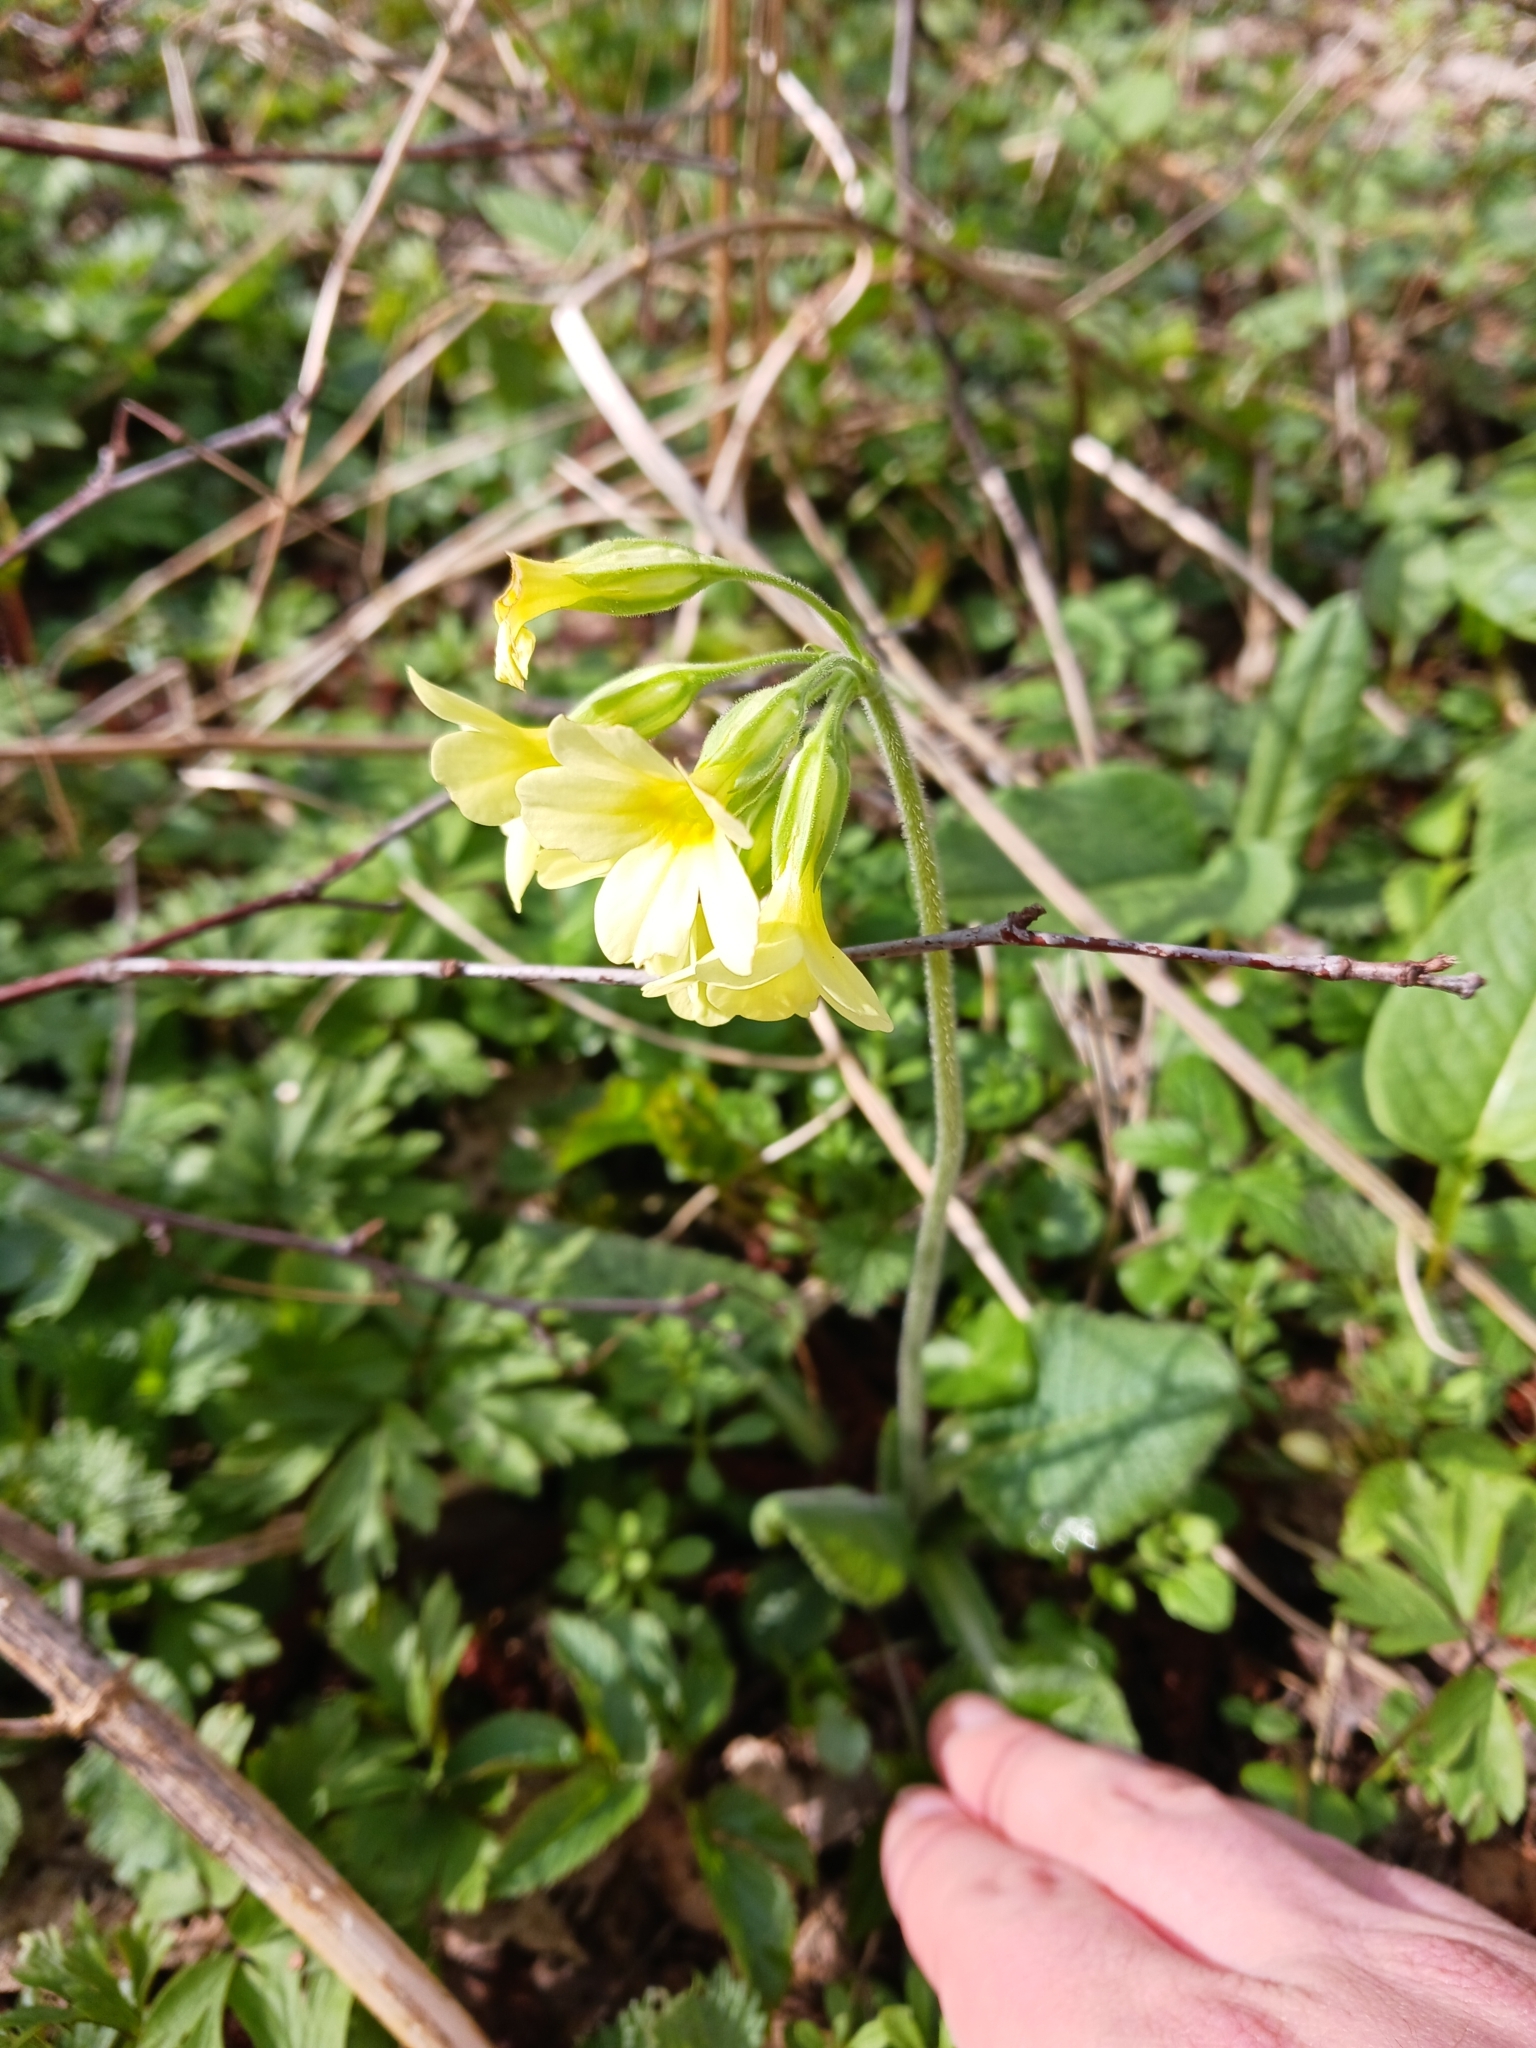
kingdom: Plantae
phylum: Tracheophyta
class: Magnoliopsida
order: Ericales
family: Primulaceae
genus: Primula
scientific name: Primula elatior
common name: Oxlip
